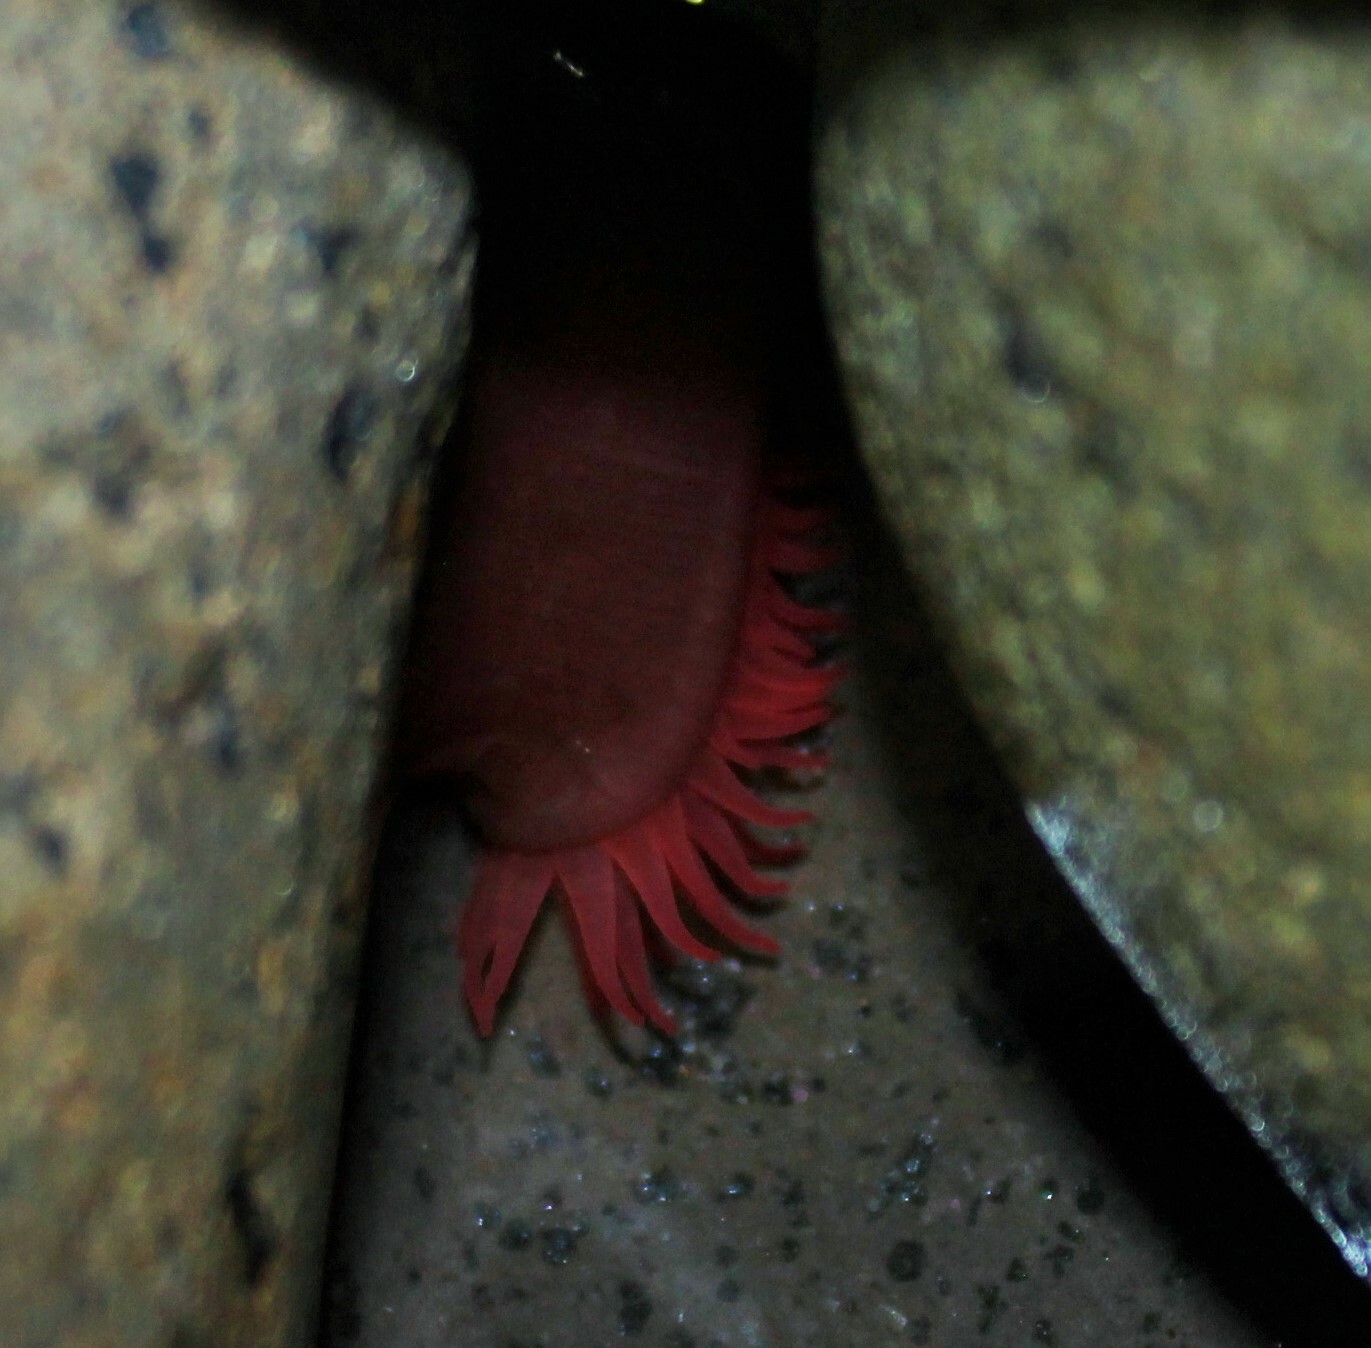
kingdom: Animalia
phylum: Cnidaria
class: Anthozoa
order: Actiniaria
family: Actiniidae
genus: Actinia
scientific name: Actinia tenebrosa
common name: Waratah anemone
